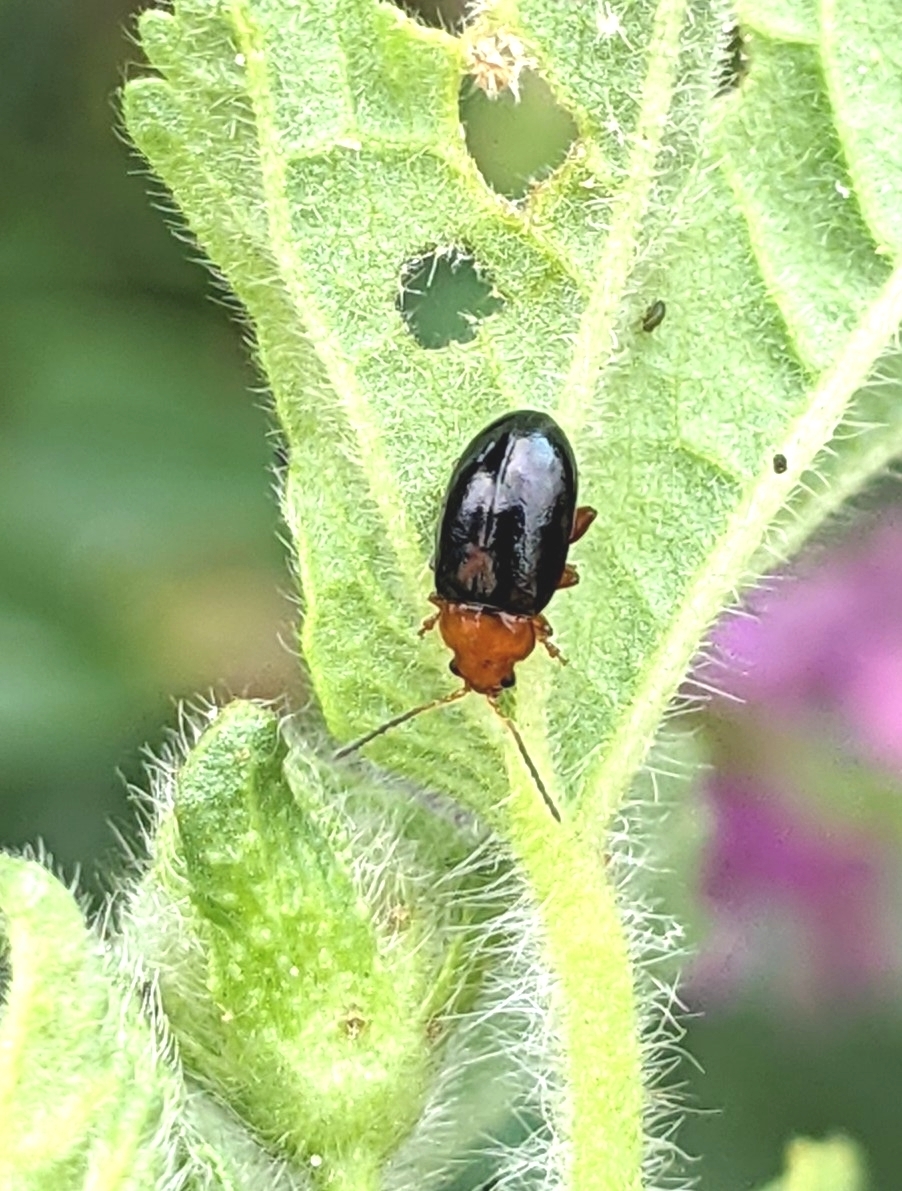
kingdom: Animalia
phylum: Arthropoda
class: Insecta
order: Coleoptera
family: Chrysomelidae
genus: Podagrica
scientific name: Podagrica fuscicornis
